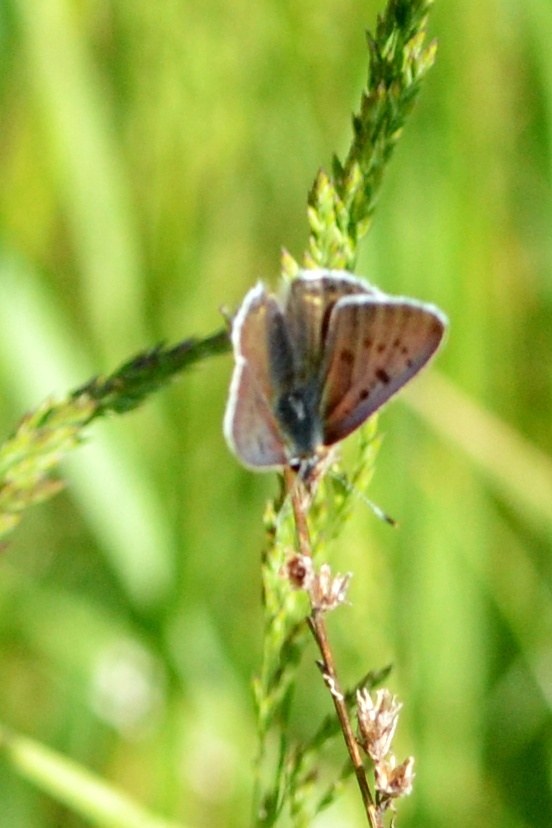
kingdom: Animalia
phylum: Arthropoda
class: Insecta
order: Lepidoptera
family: Lycaenidae
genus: Loweia
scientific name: Loweia tityrus
